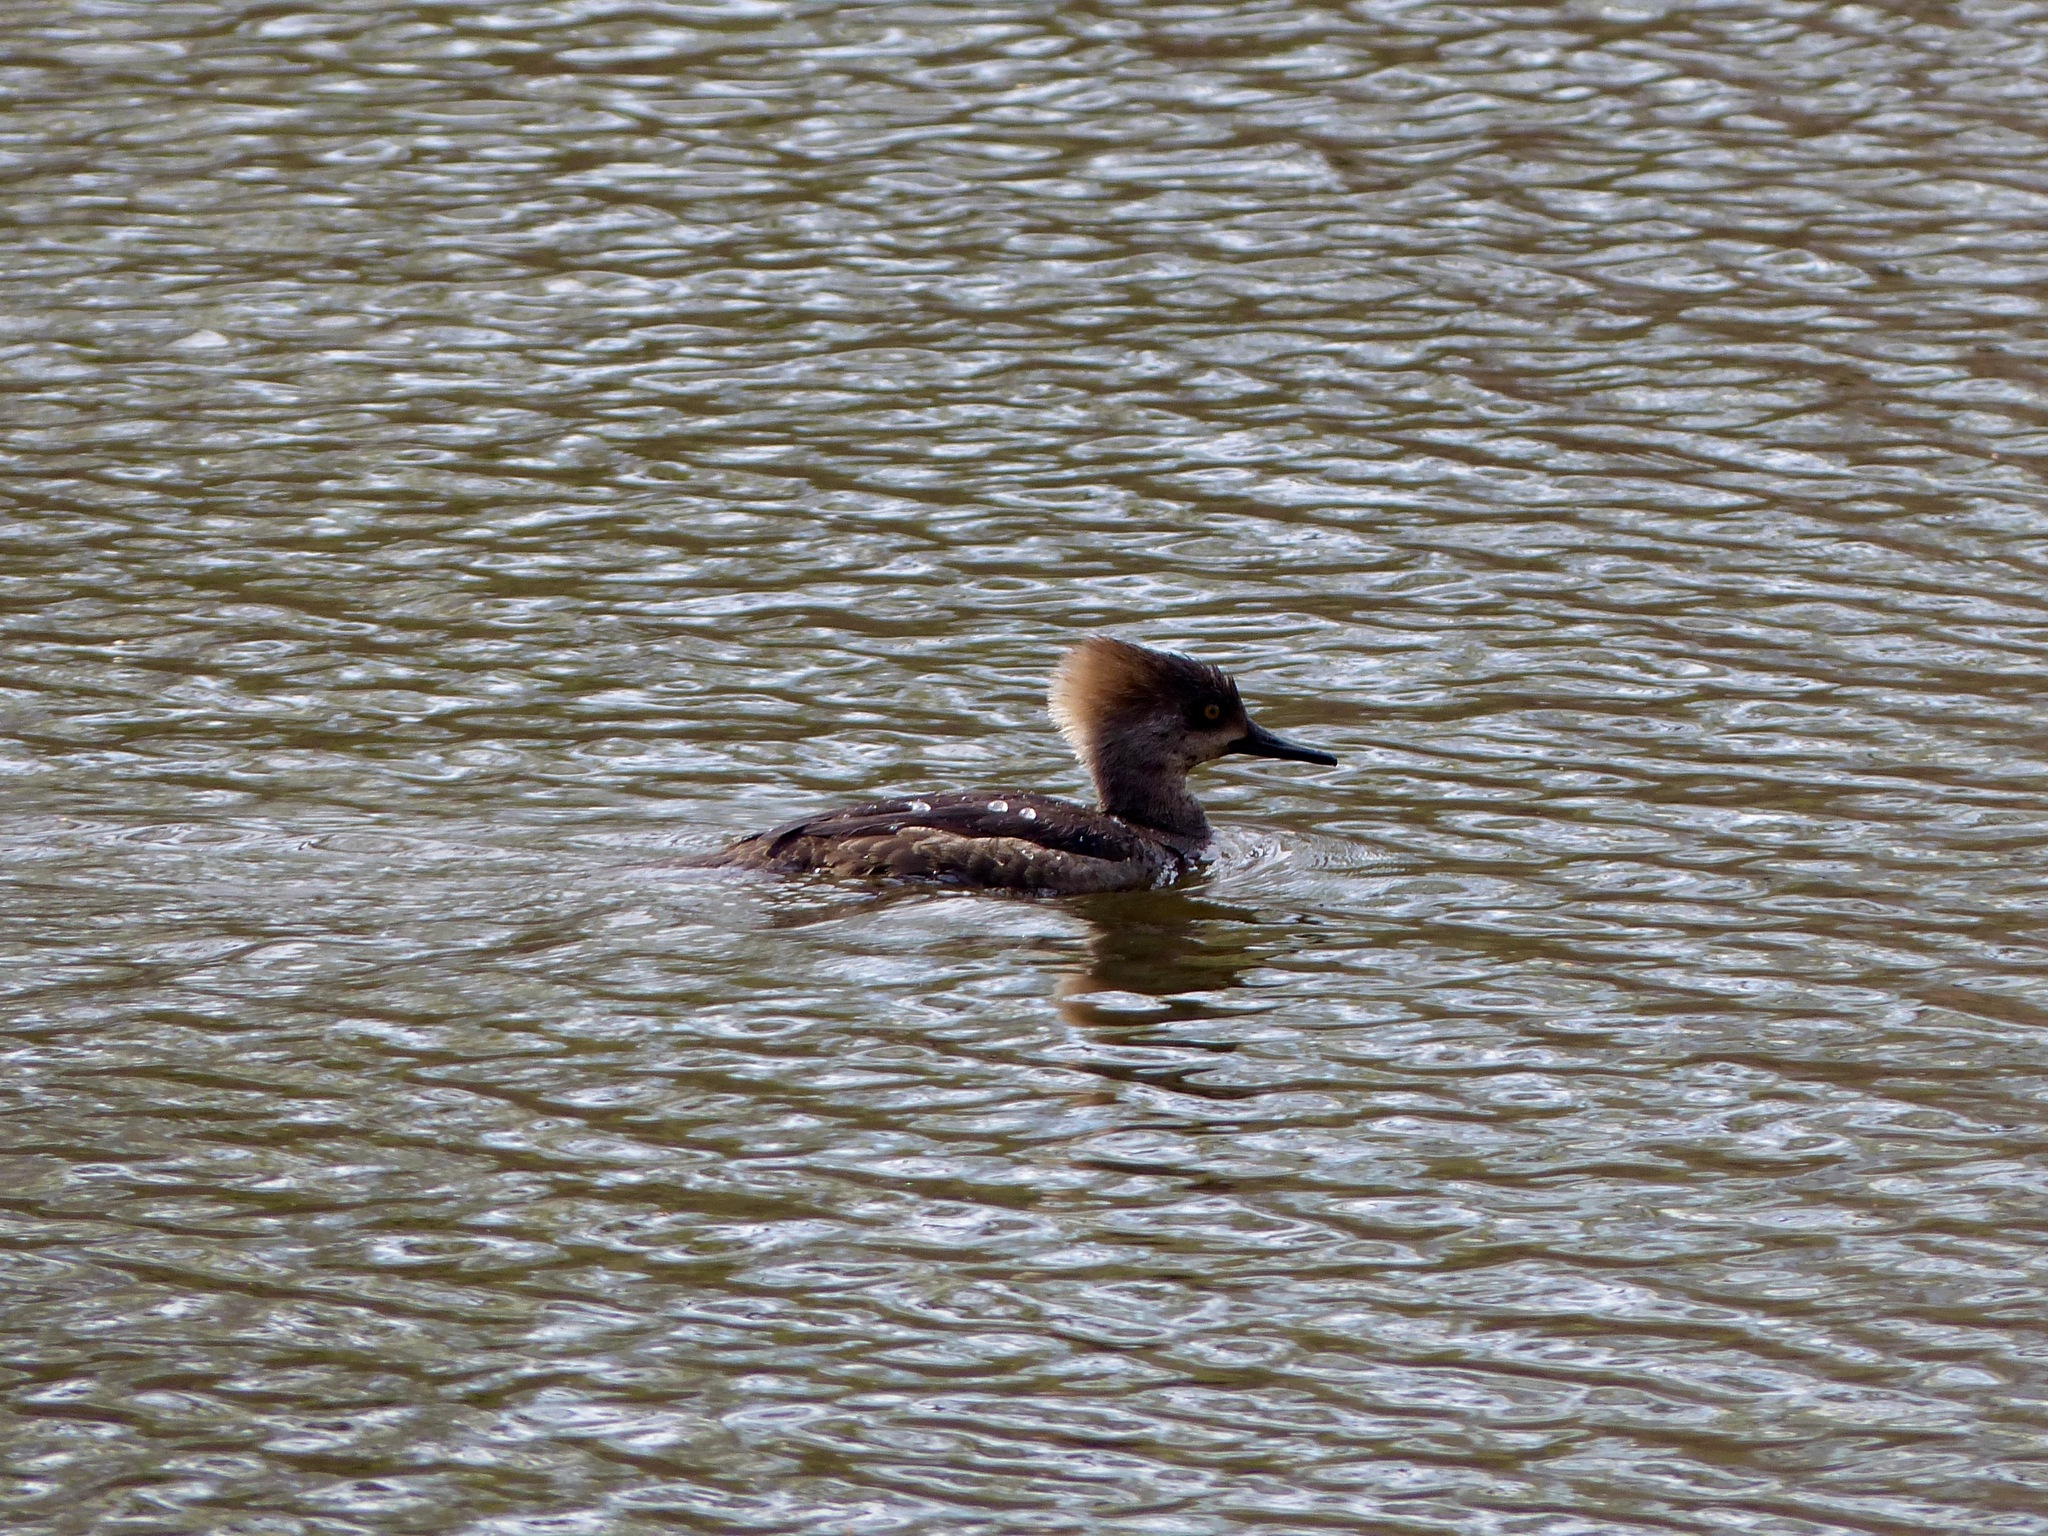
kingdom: Animalia
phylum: Chordata
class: Aves
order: Anseriformes
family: Anatidae
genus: Lophodytes
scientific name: Lophodytes cucullatus
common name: Hooded merganser
